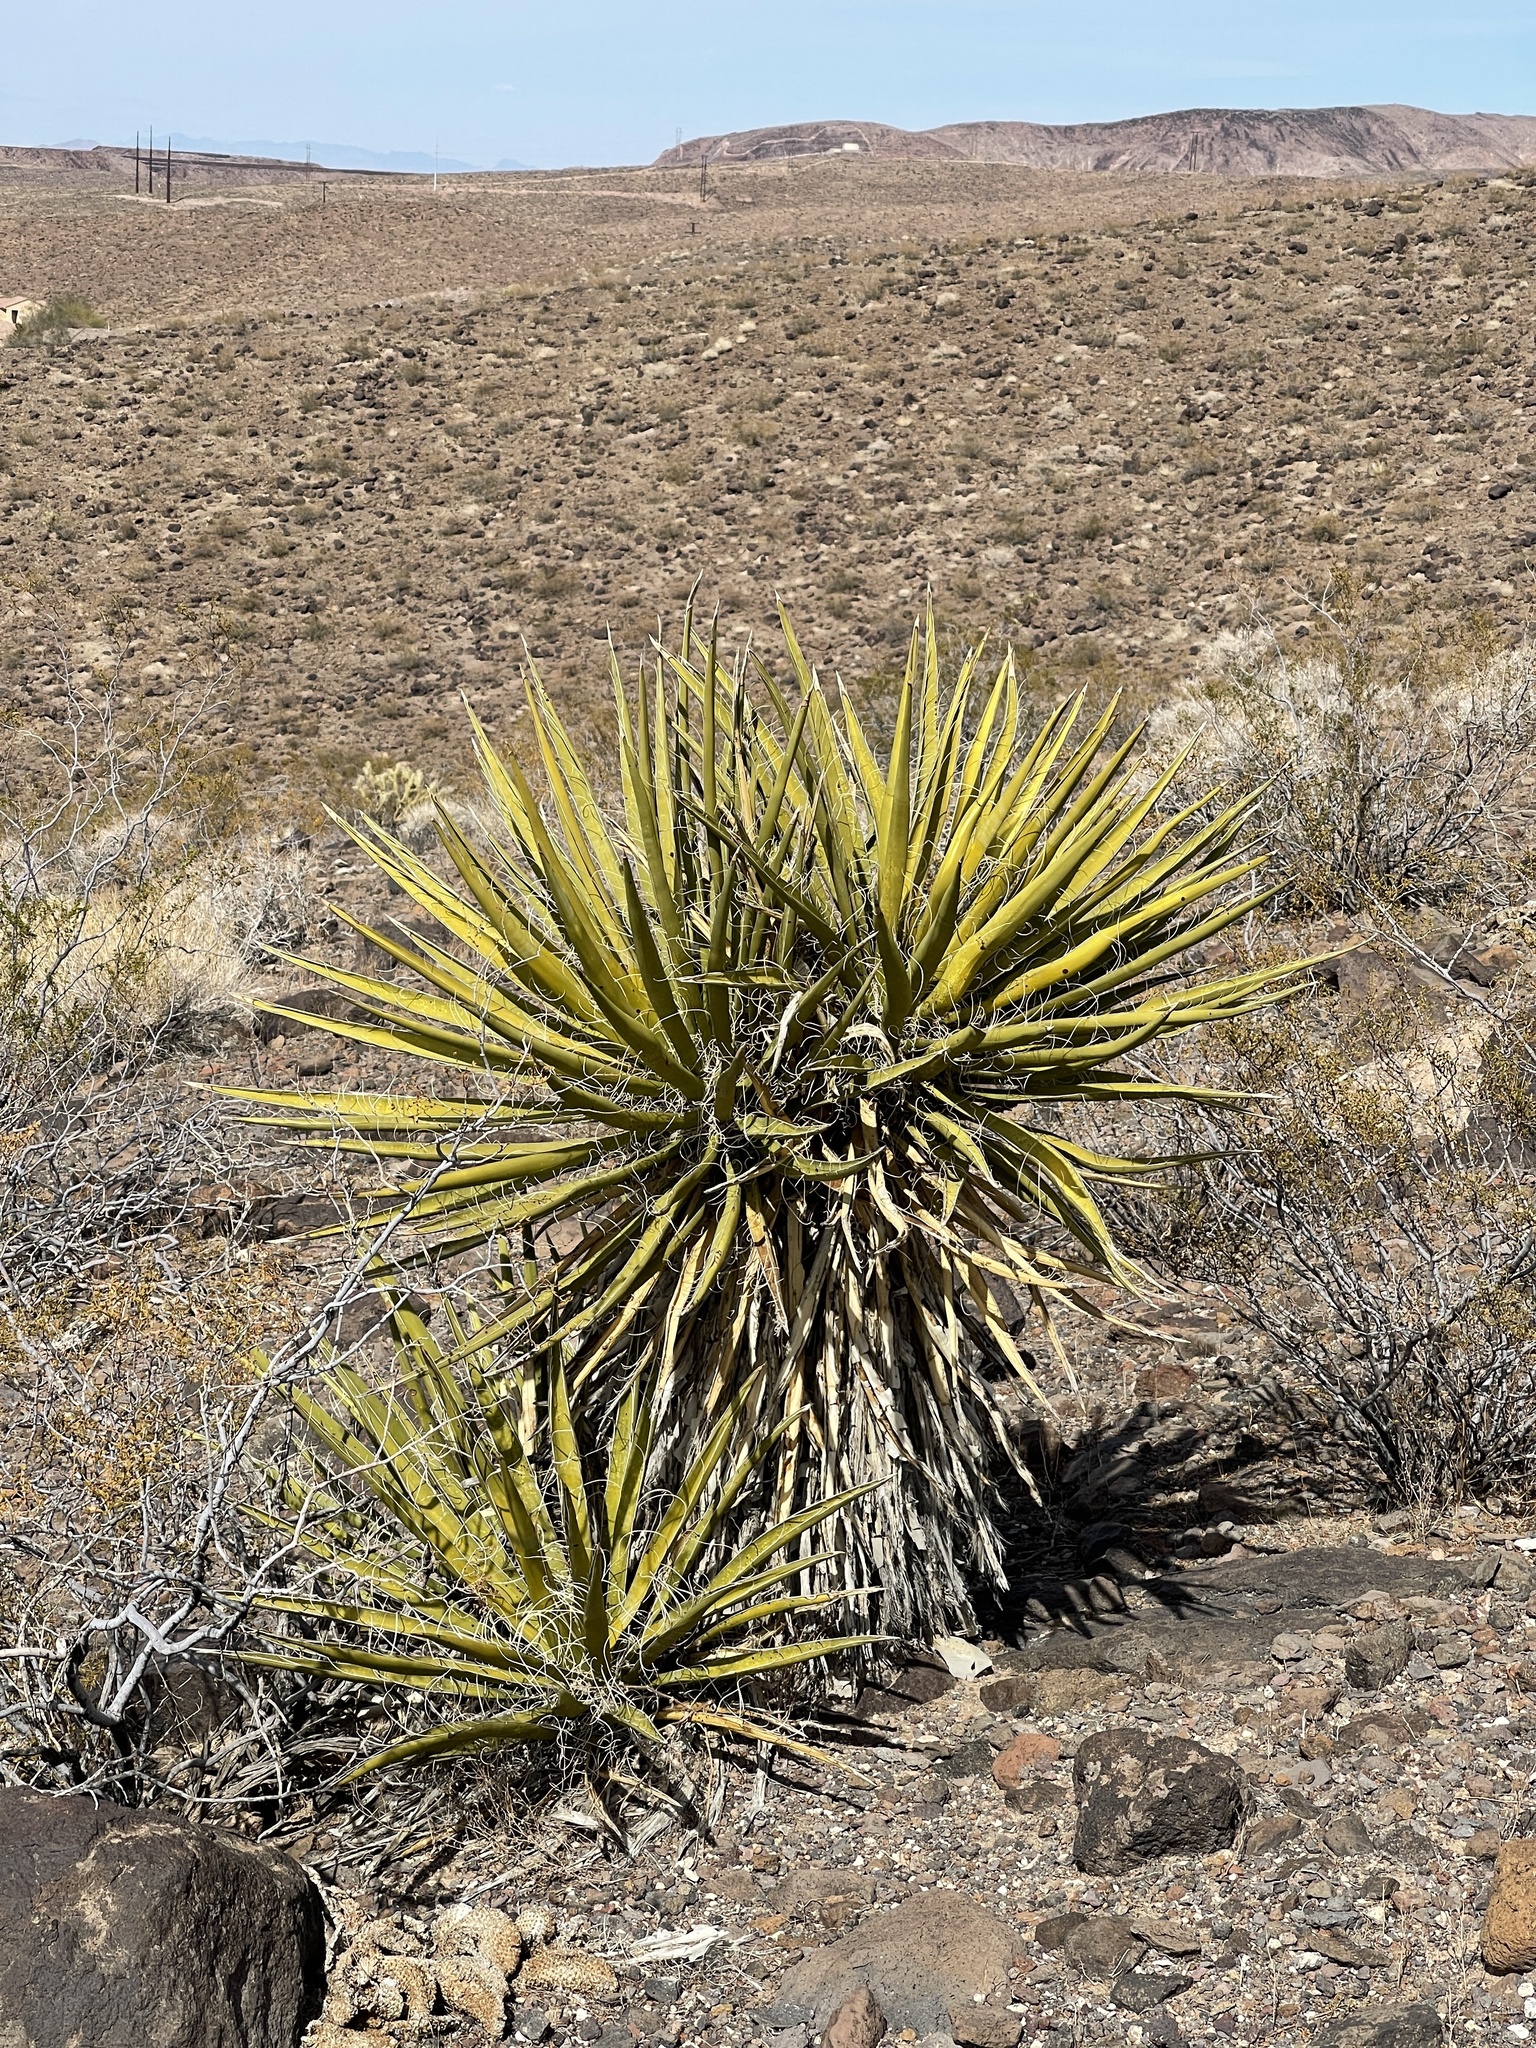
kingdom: Plantae
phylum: Tracheophyta
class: Liliopsida
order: Asparagales
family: Asparagaceae
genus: Yucca
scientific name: Yucca schidigera
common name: Mojave yucca
